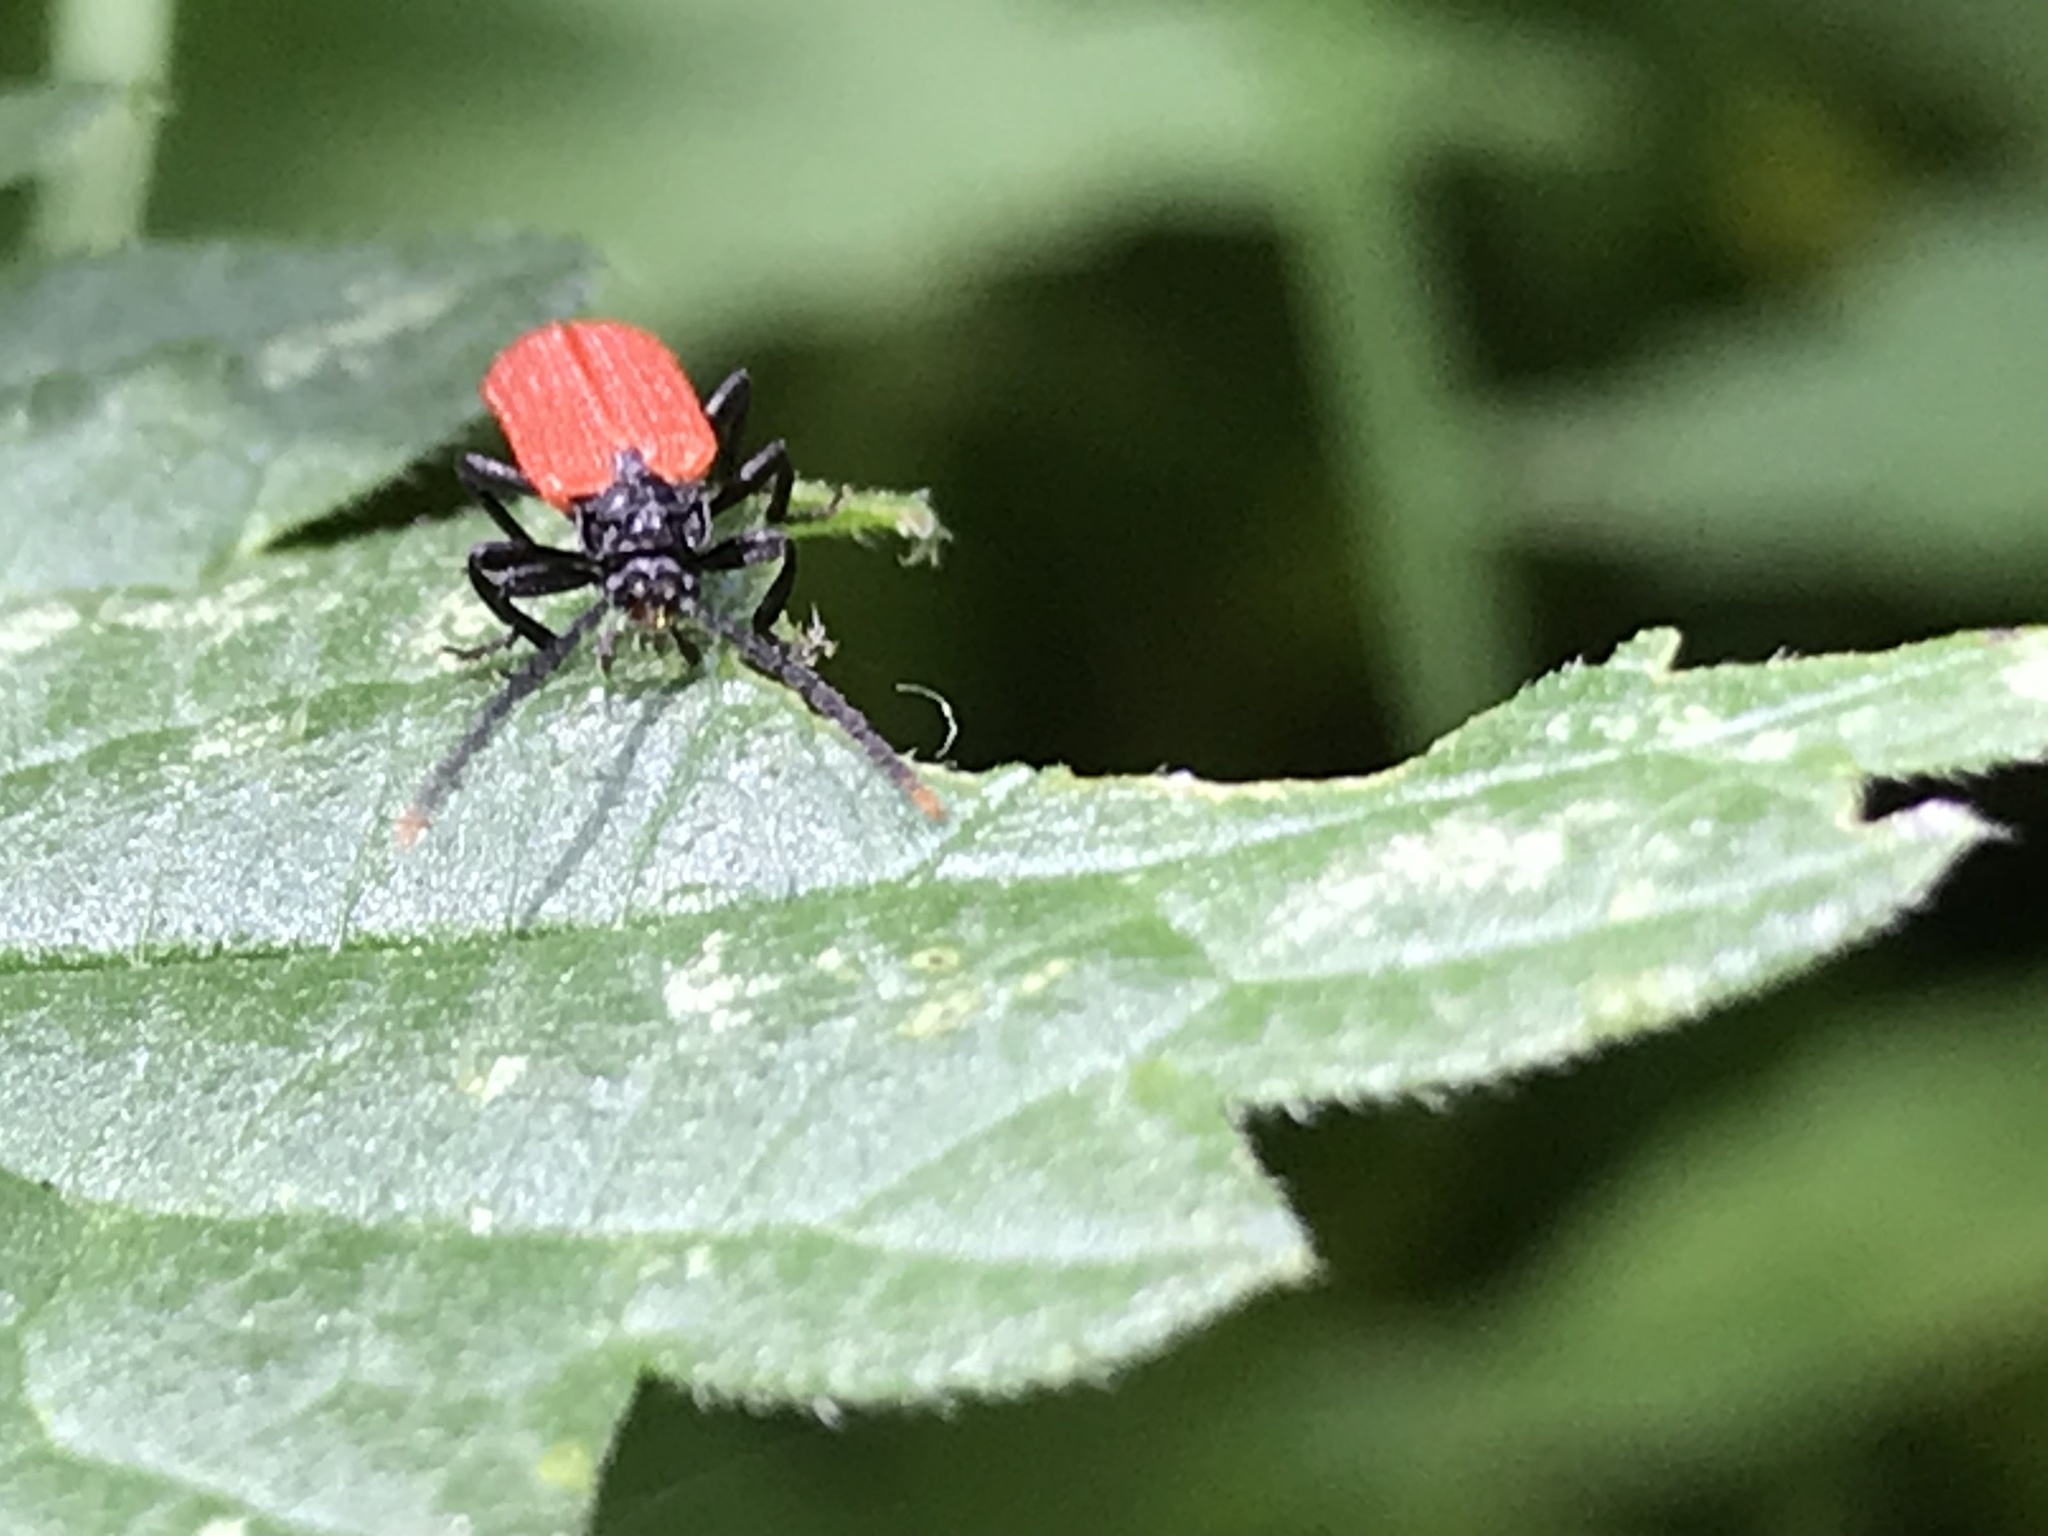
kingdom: Animalia
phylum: Arthropoda
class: Insecta
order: Coleoptera
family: Lycidae
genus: Platycis
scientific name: Platycis minutus
